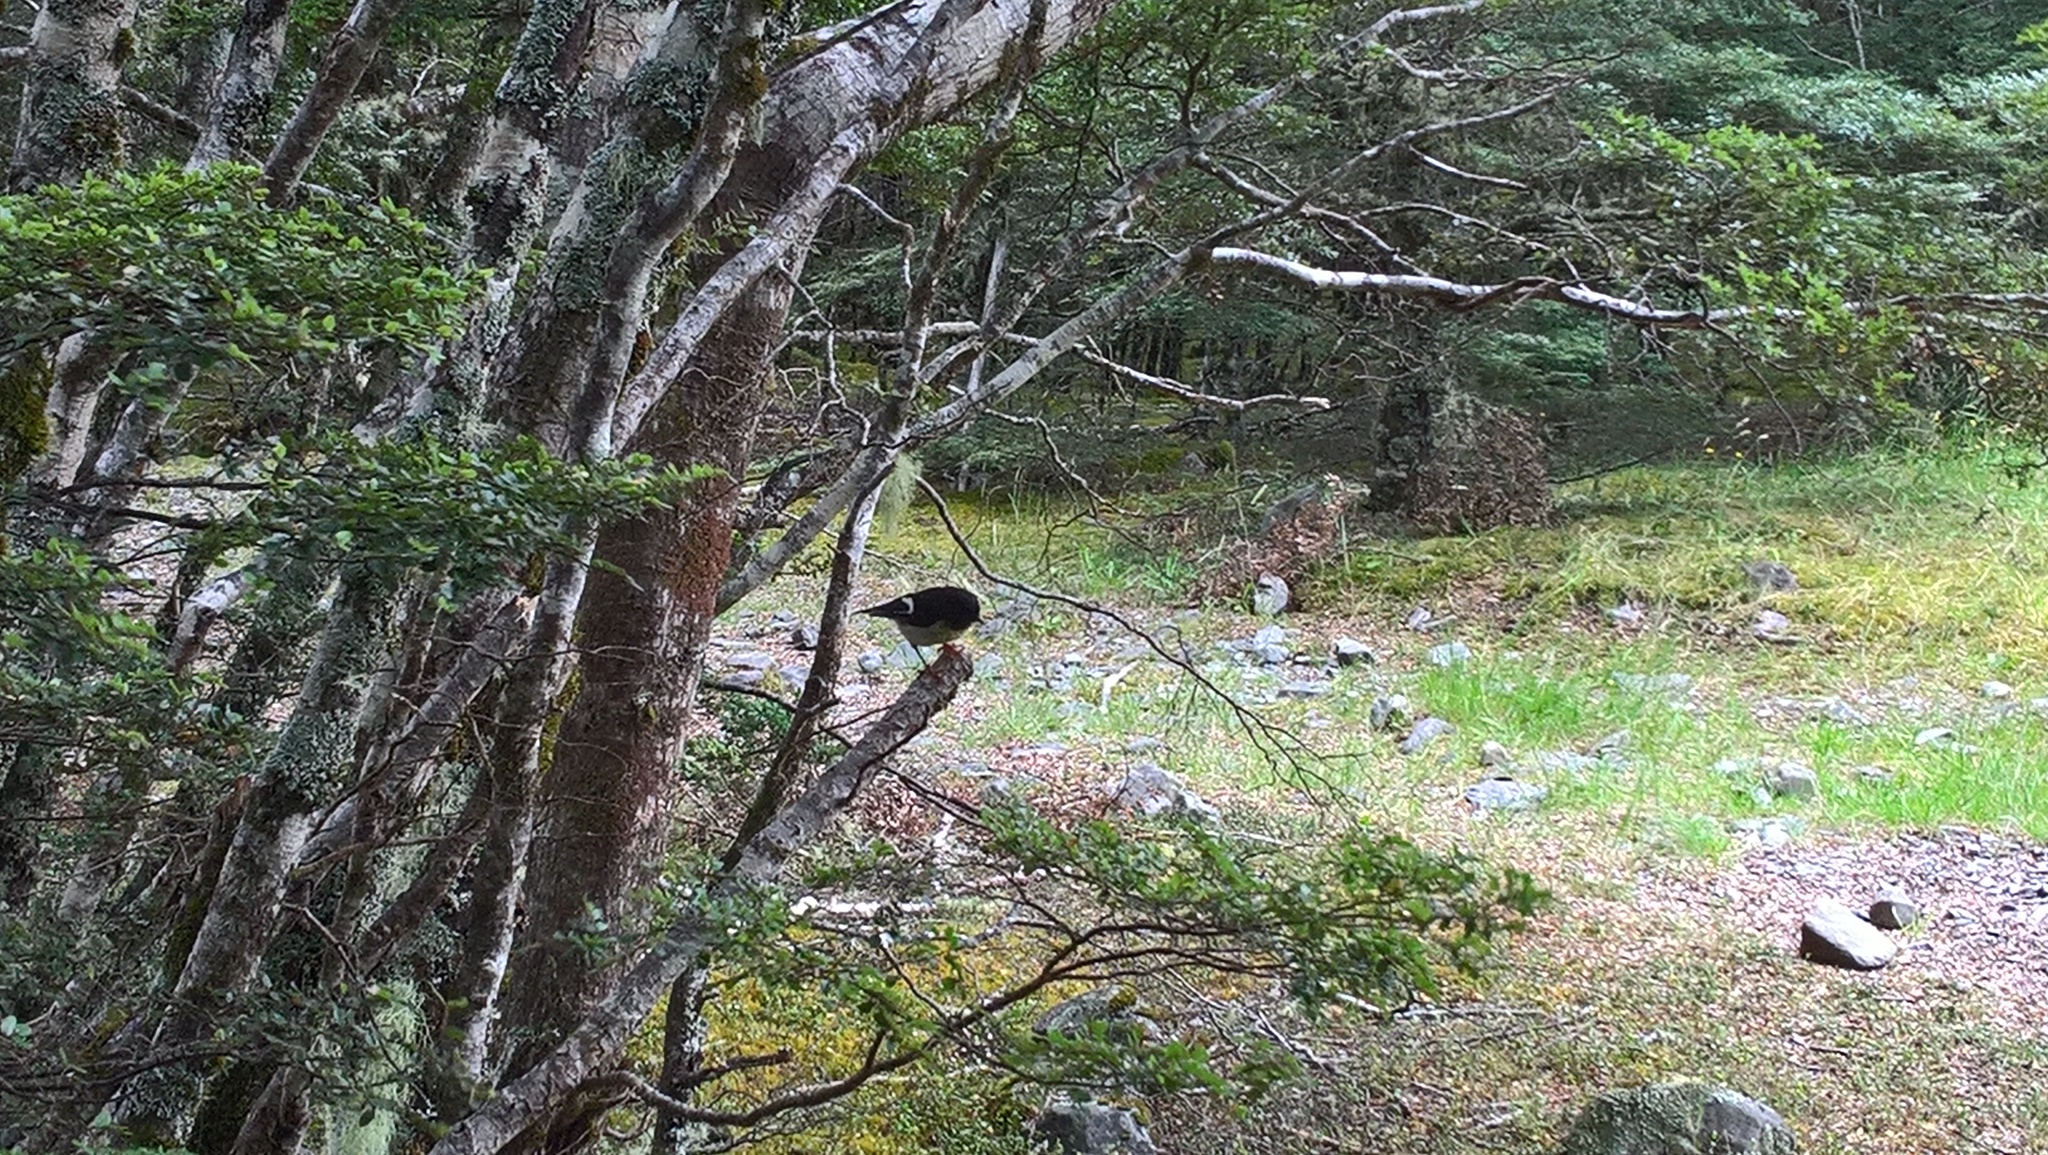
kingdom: Animalia
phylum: Chordata
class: Aves
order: Passeriformes
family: Petroicidae
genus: Petroica
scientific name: Petroica macrocephala
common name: Tomtit
